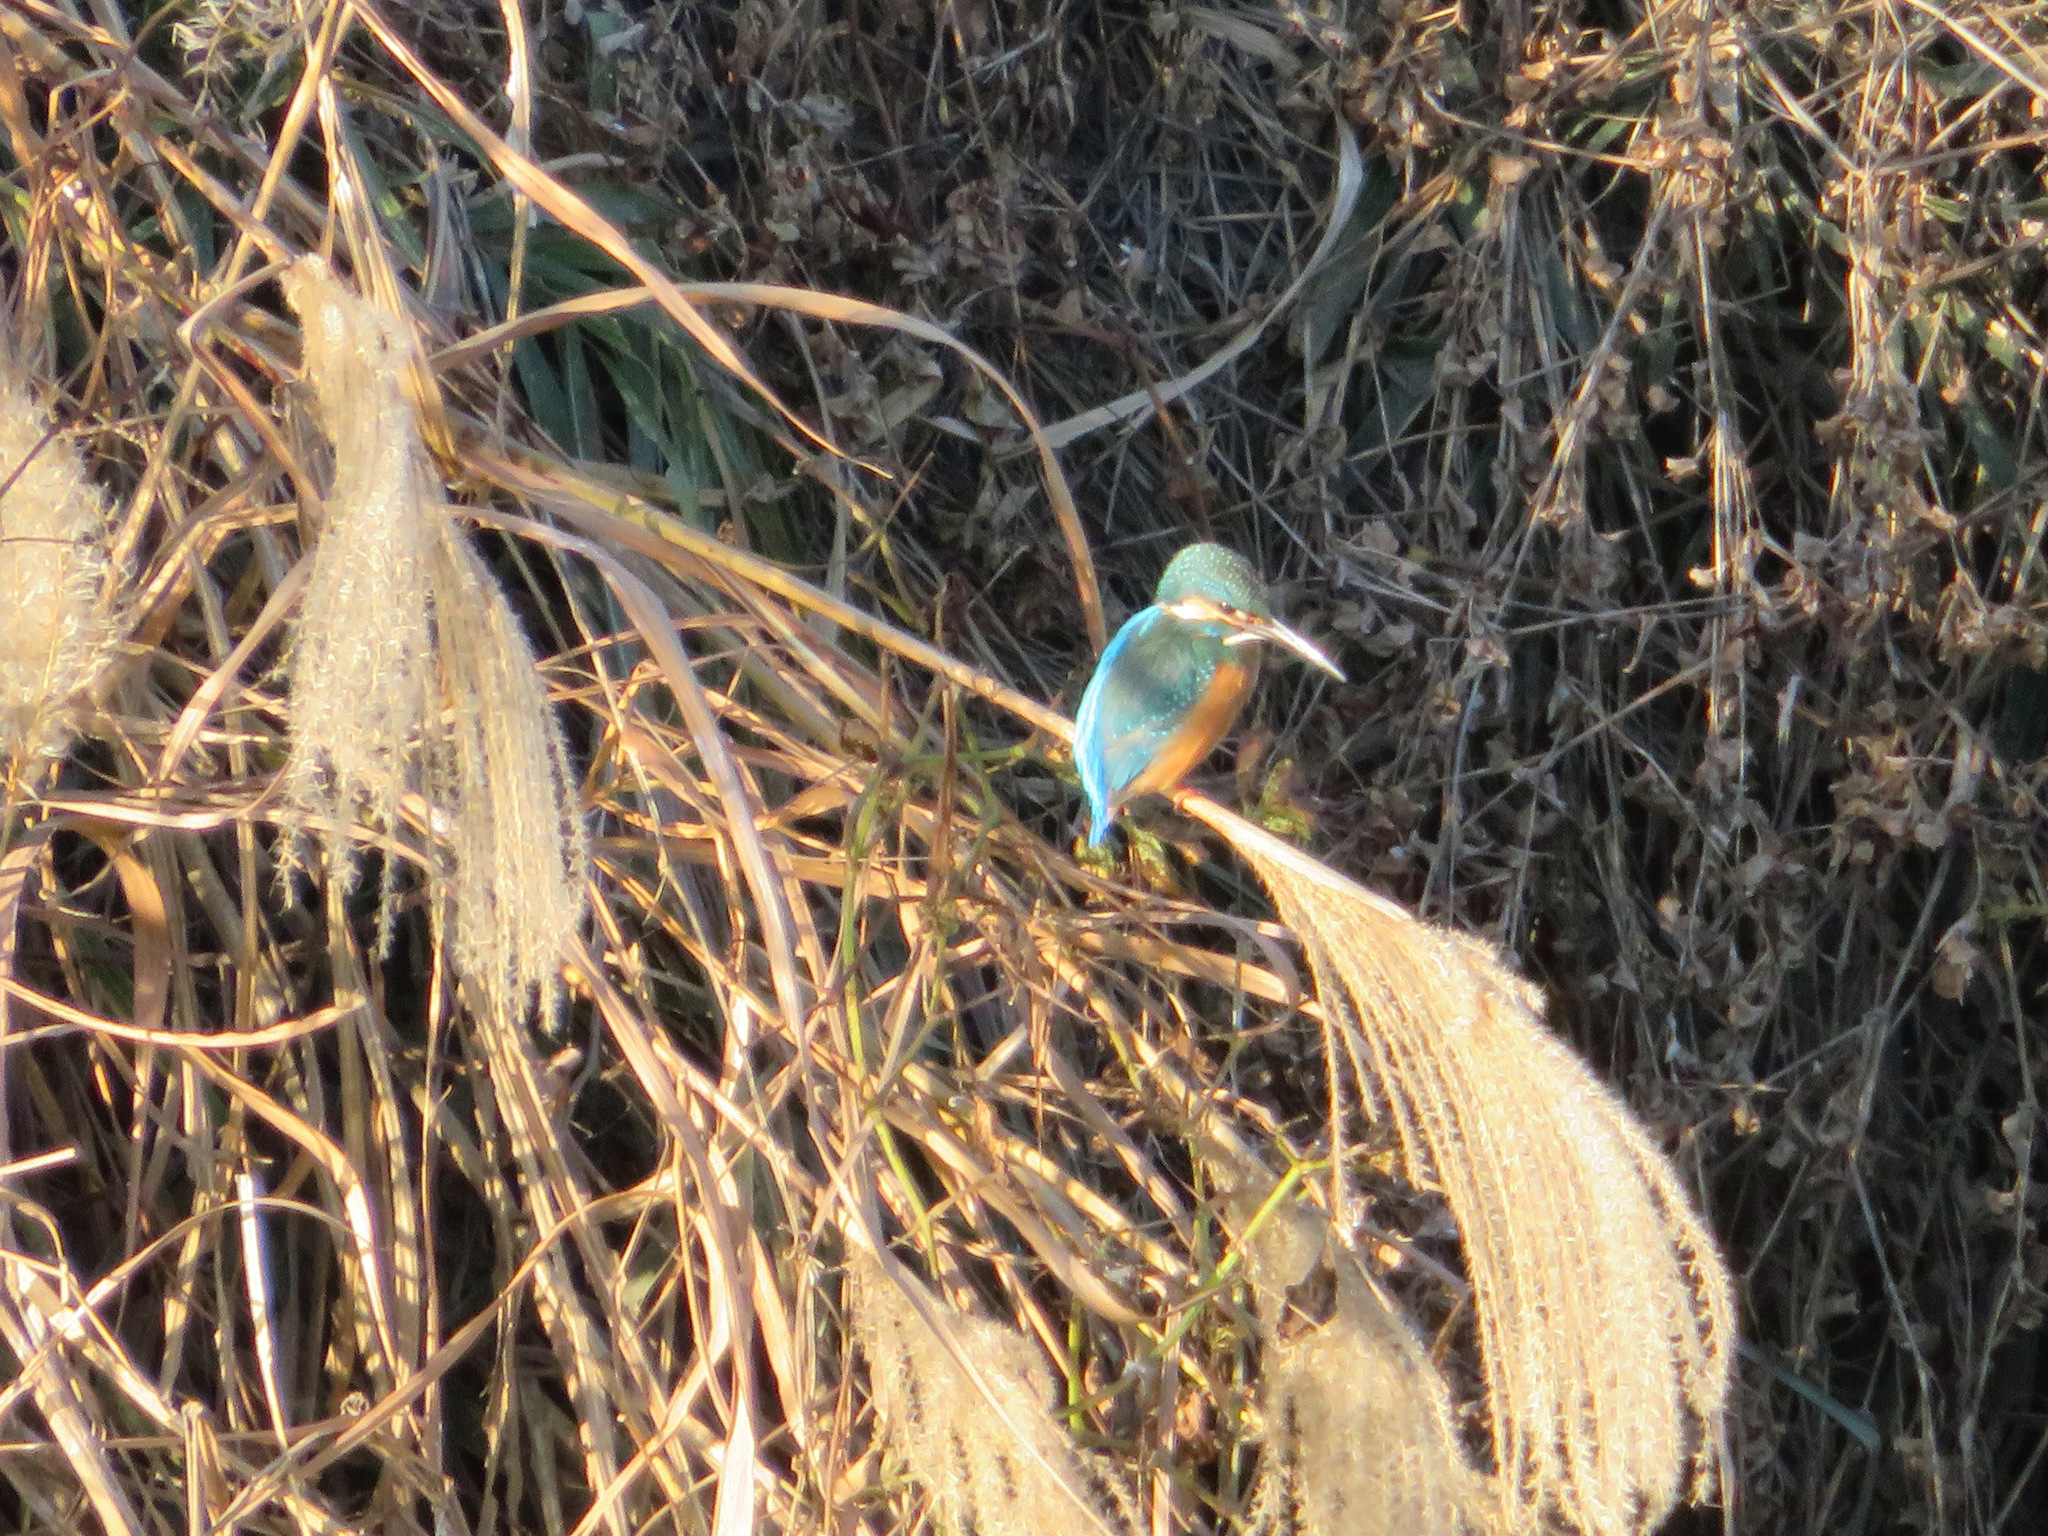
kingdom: Animalia
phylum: Chordata
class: Aves
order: Coraciiformes
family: Alcedinidae
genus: Alcedo
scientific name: Alcedo atthis
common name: Common kingfisher
